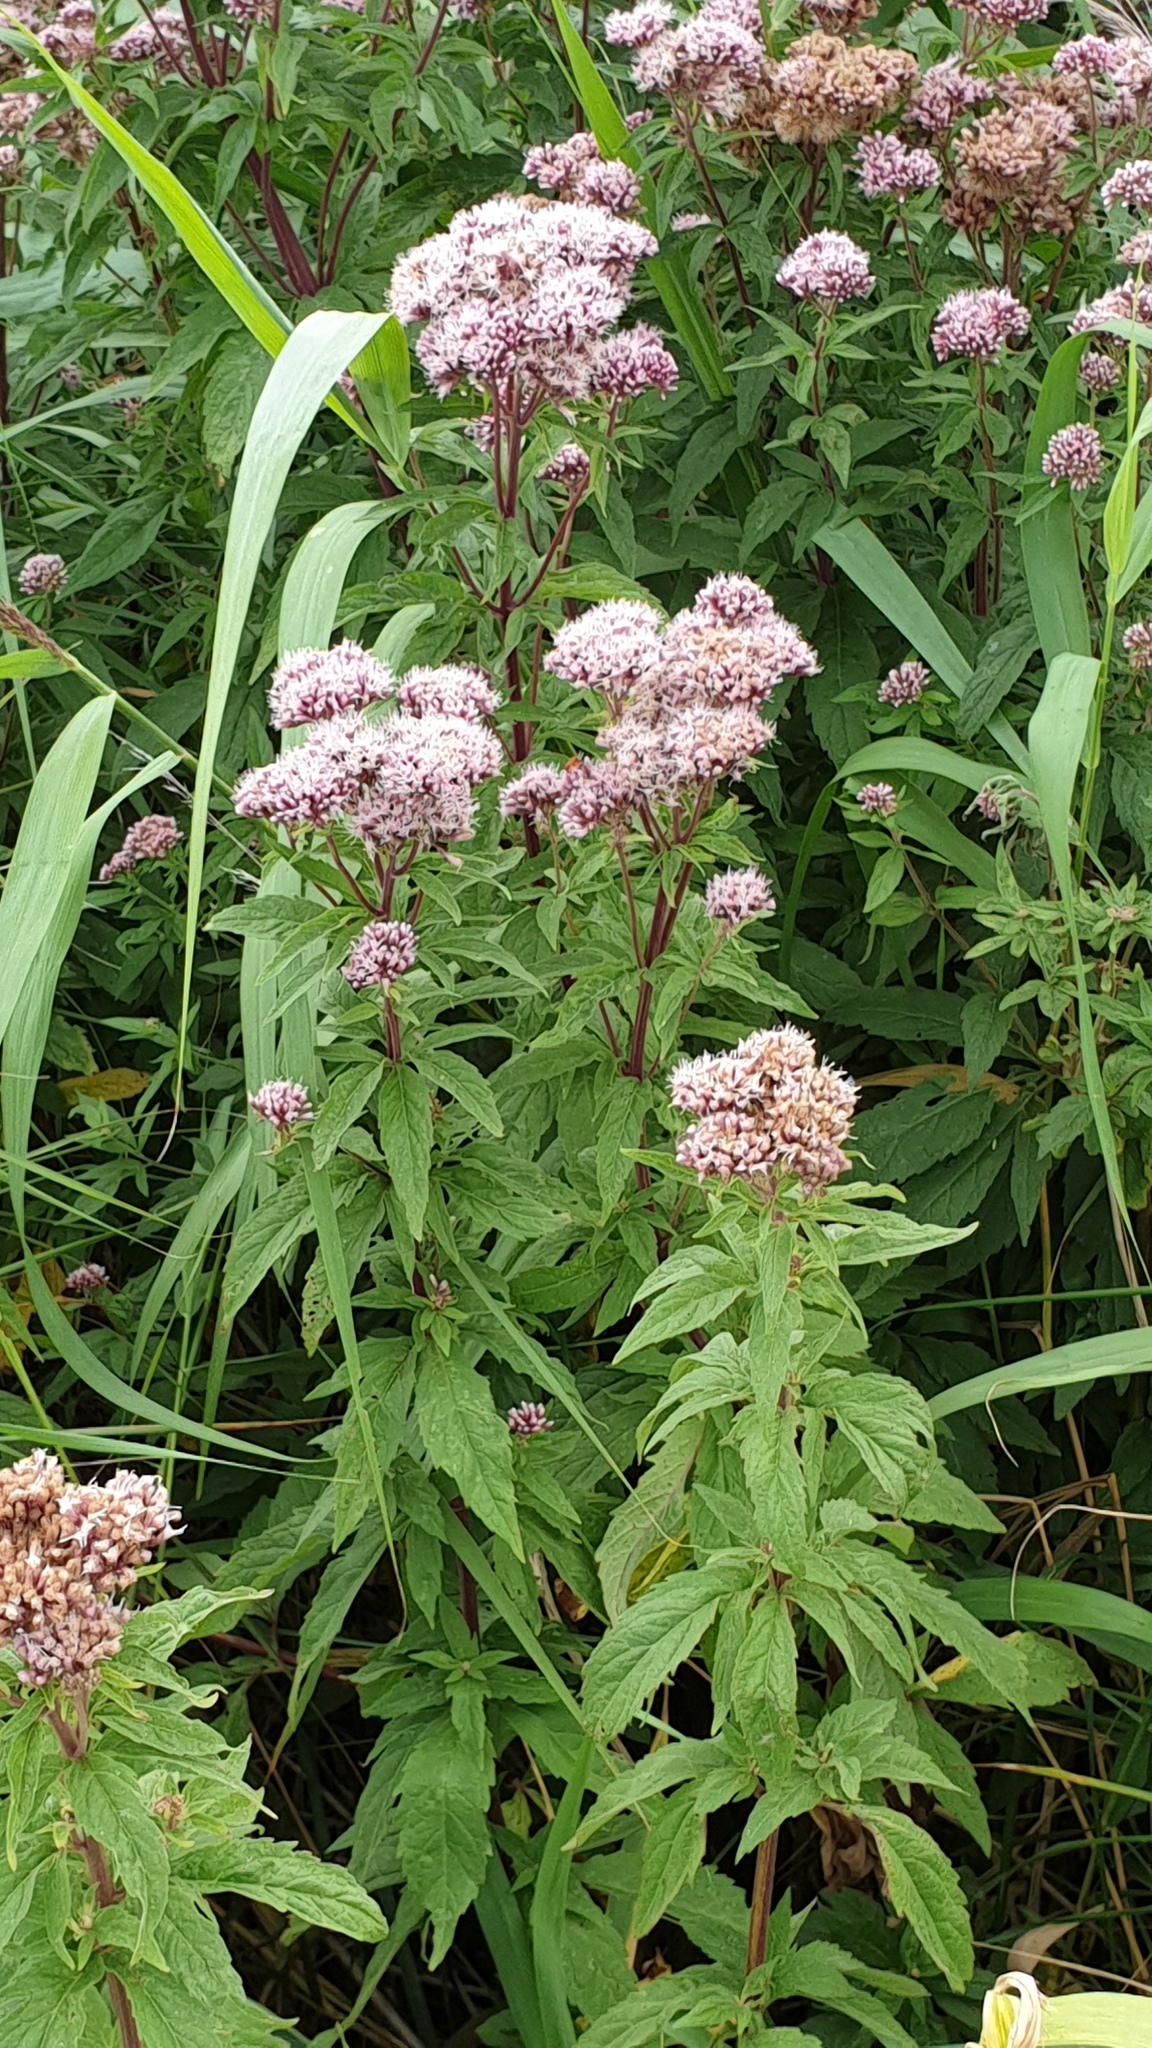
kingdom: Plantae
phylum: Tracheophyta
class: Magnoliopsida
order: Asterales
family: Asteraceae
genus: Eupatorium
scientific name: Eupatorium cannabinum
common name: Hemp-agrimony
